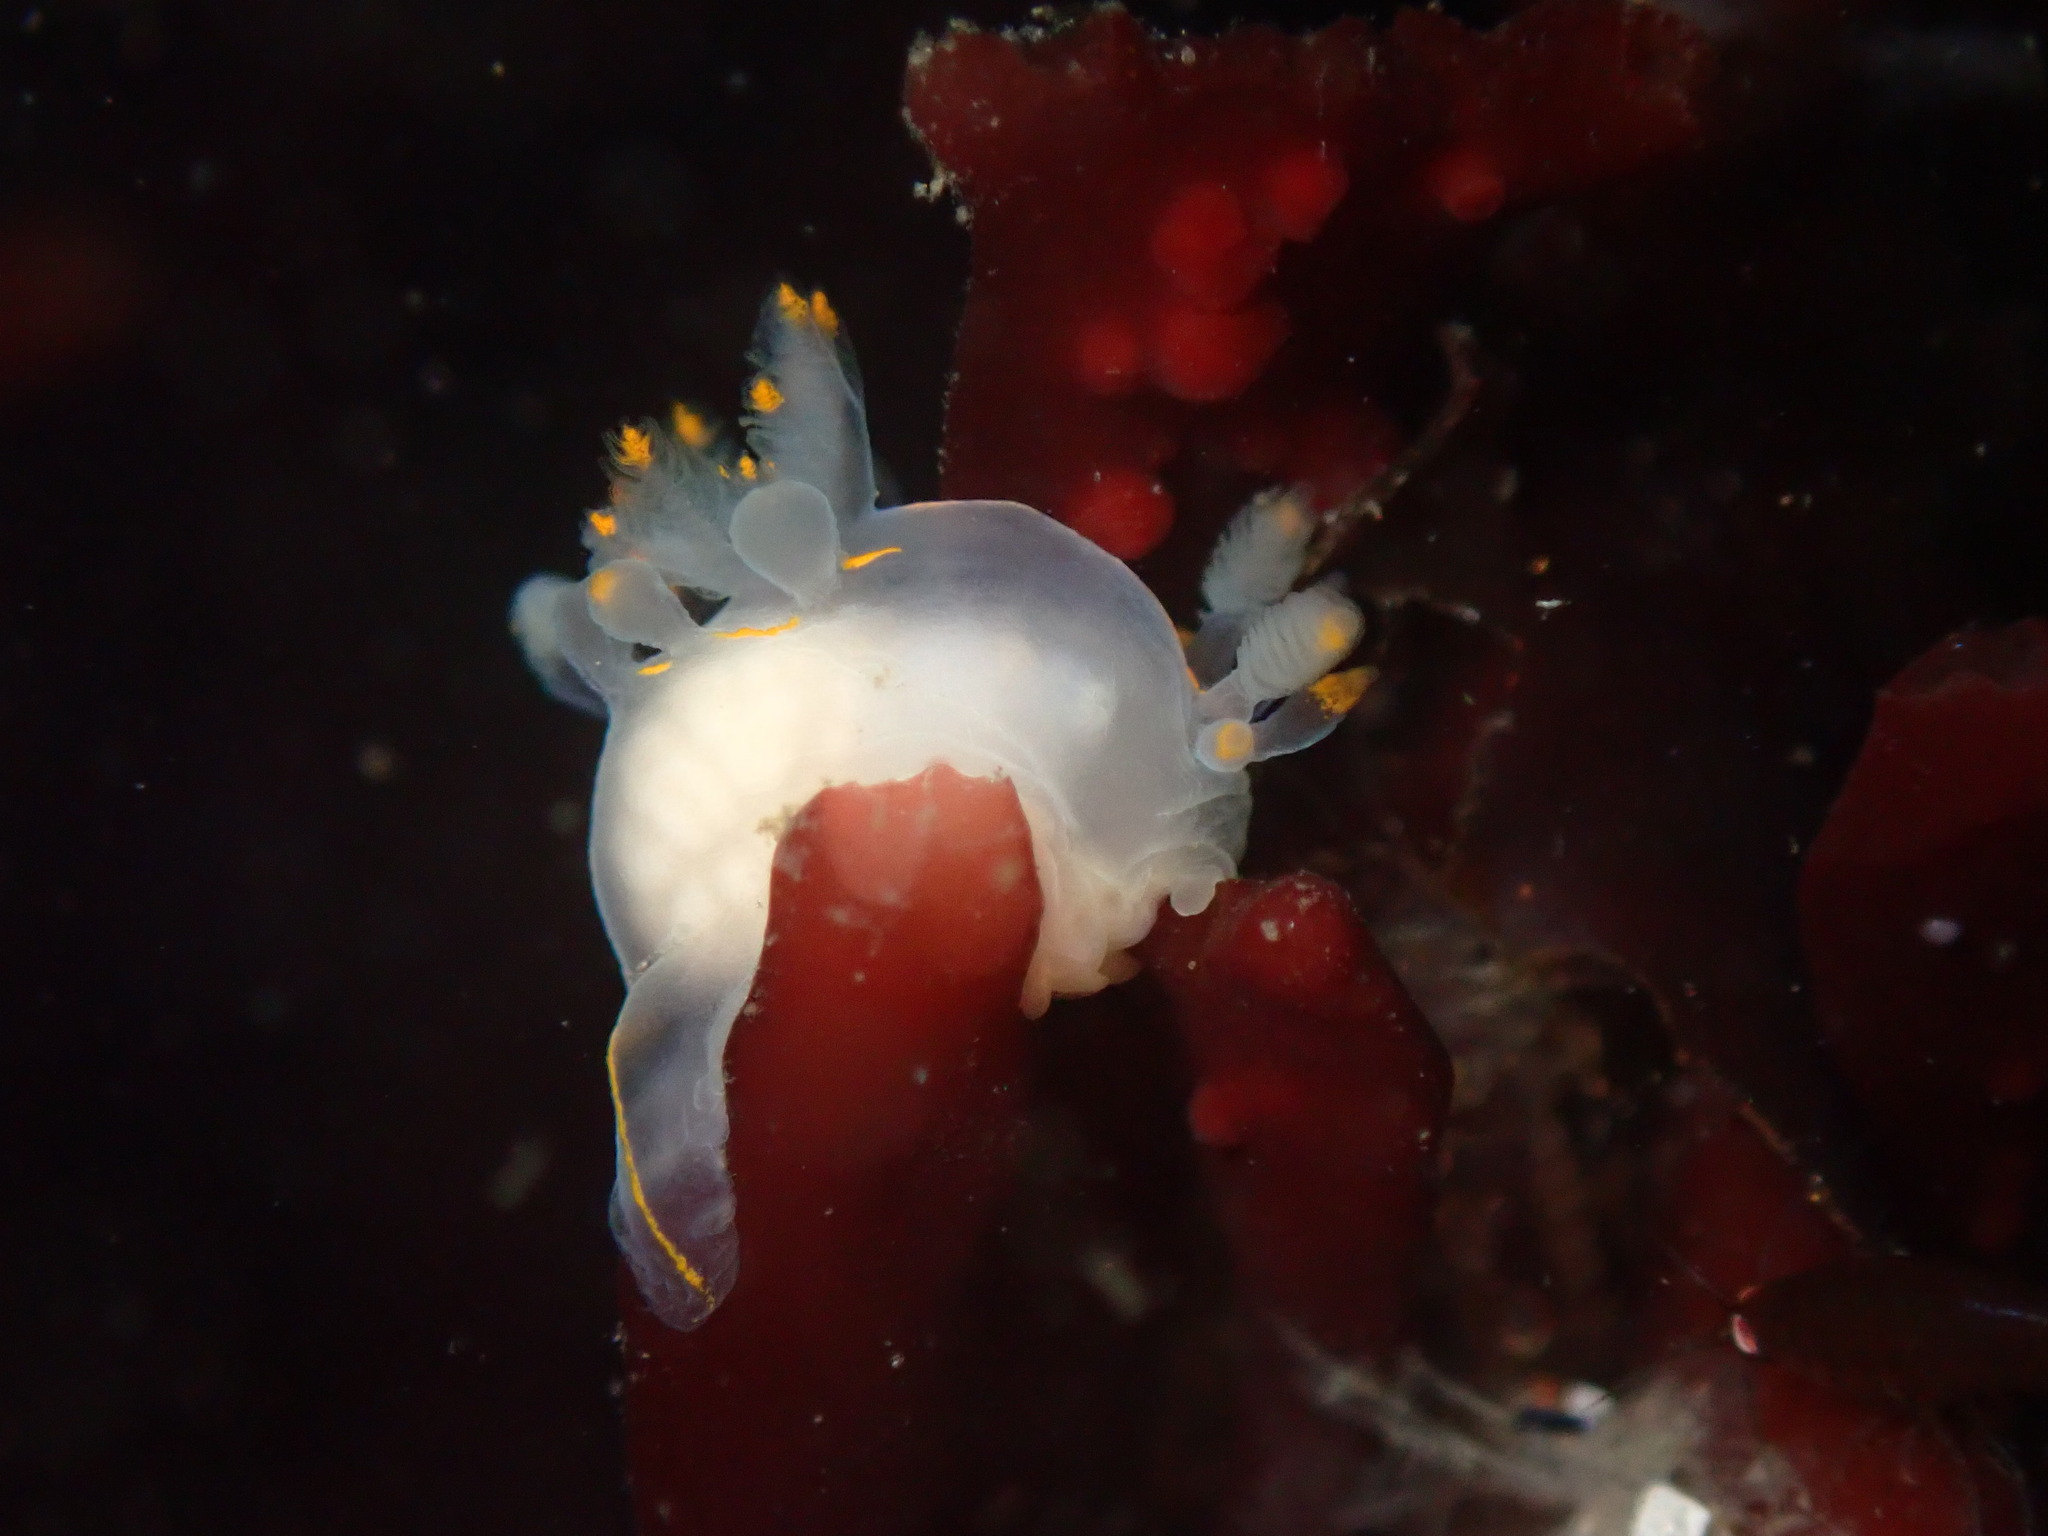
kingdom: Animalia
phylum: Mollusca
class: Gastropoda
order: Nudibranchia
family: Goniodorididae
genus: Ancula
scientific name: Ancula pacifica
